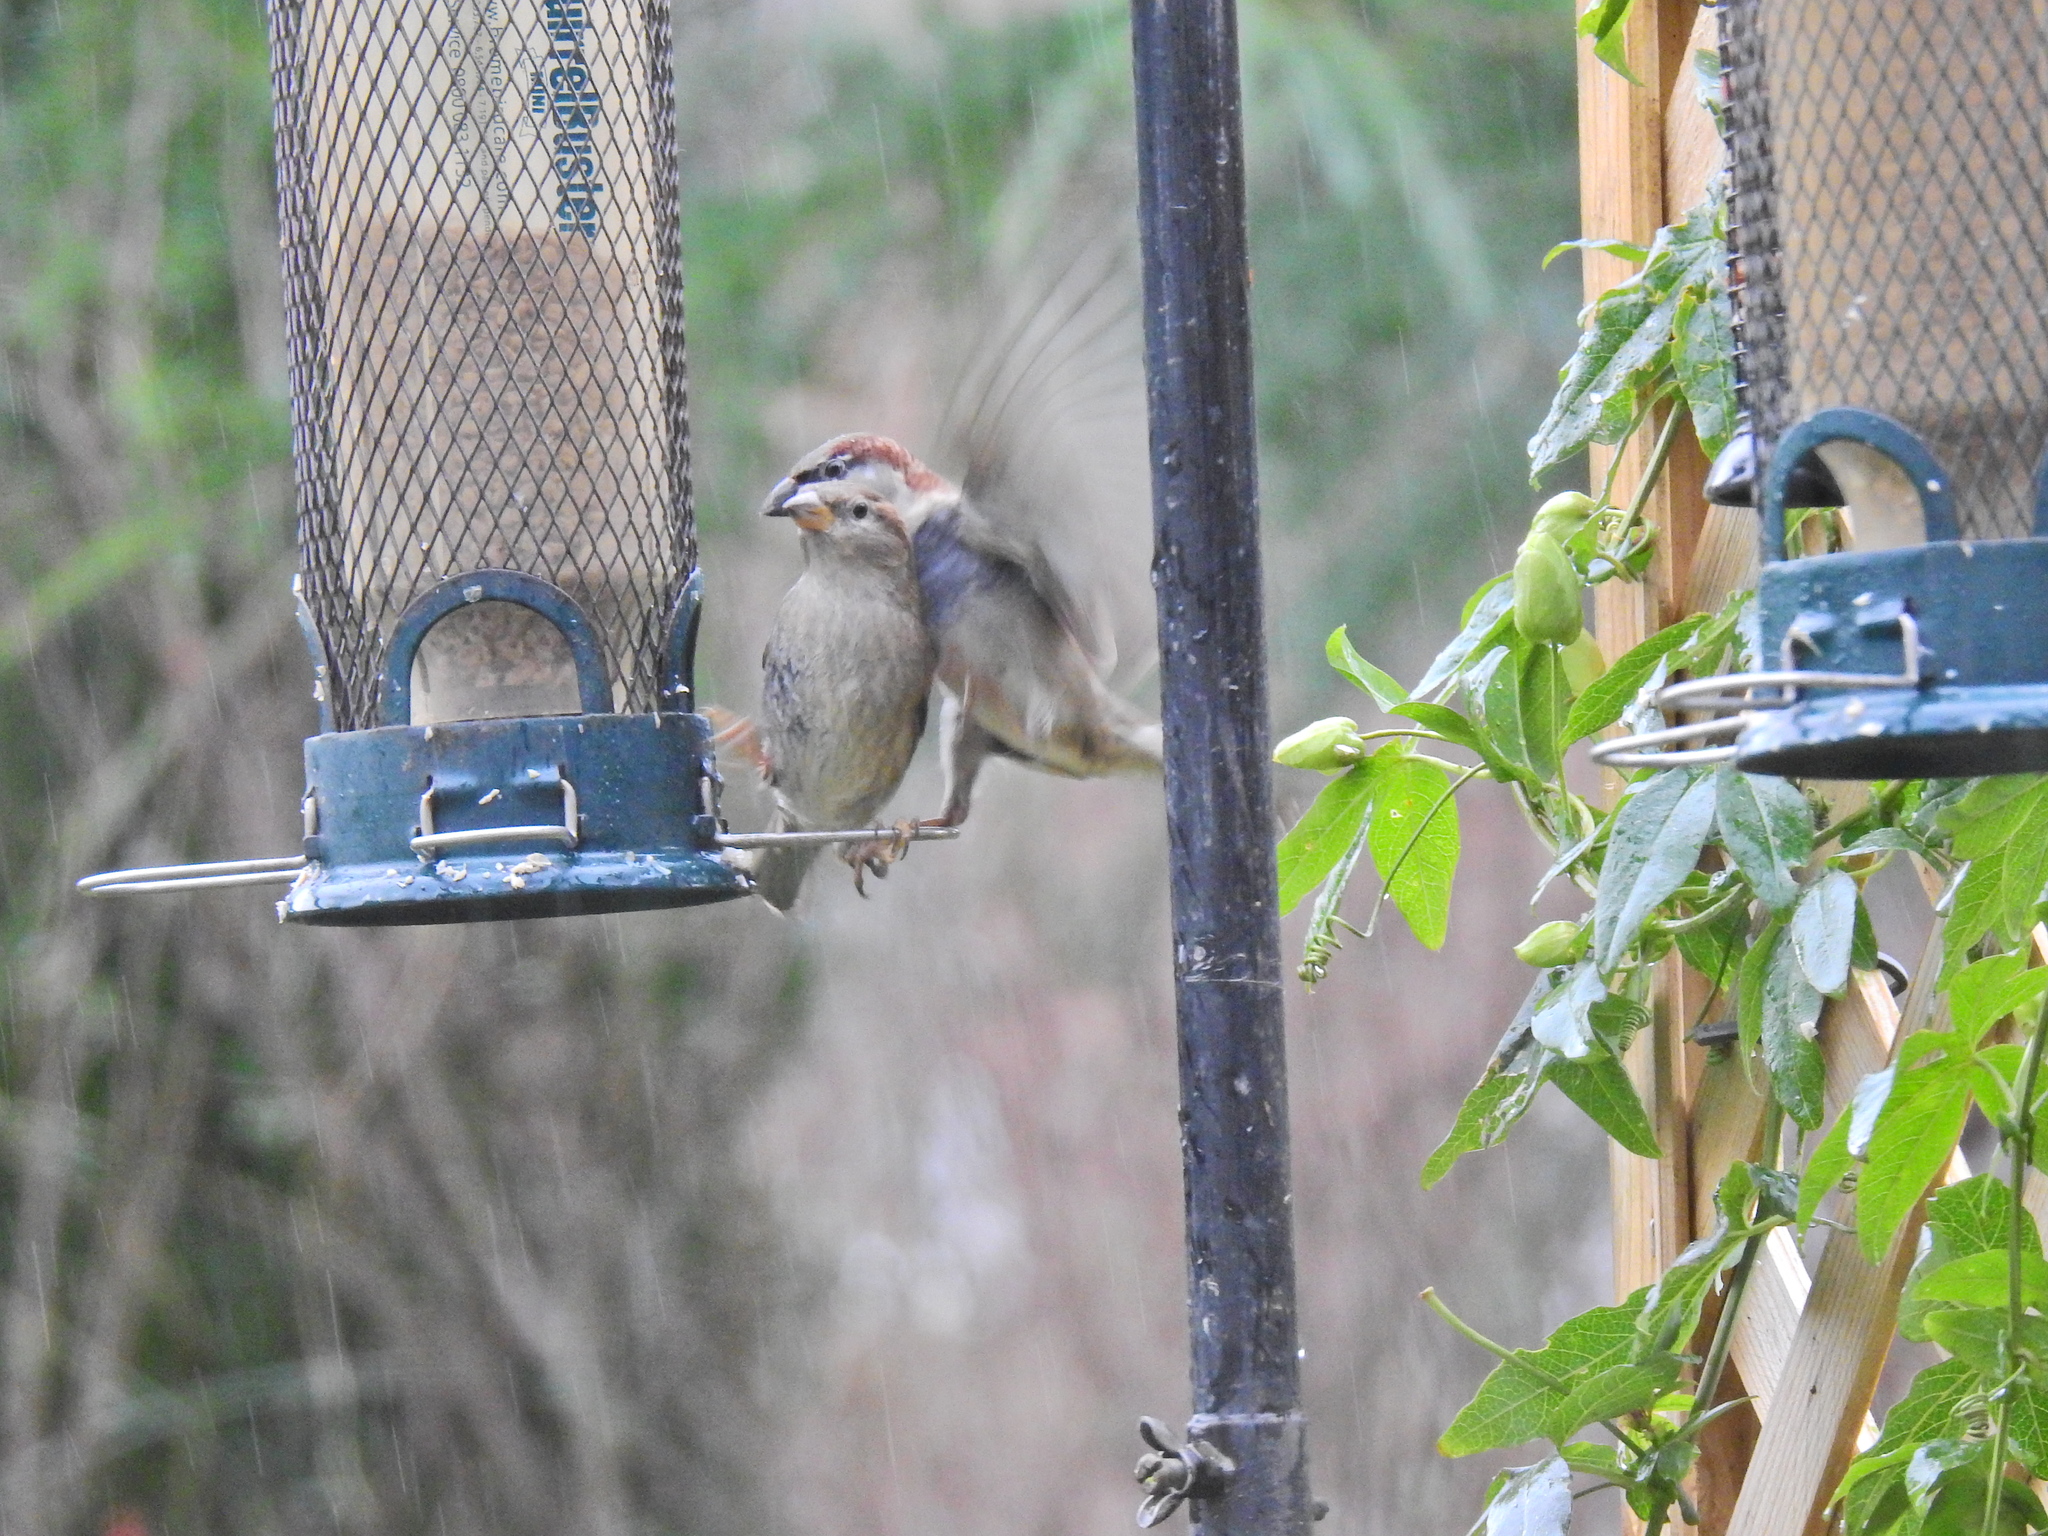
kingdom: Animalia
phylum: Chordata
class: Aves
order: Passeriformes
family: Passeridae
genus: Passer
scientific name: Passer domesticus
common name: House sparrow
